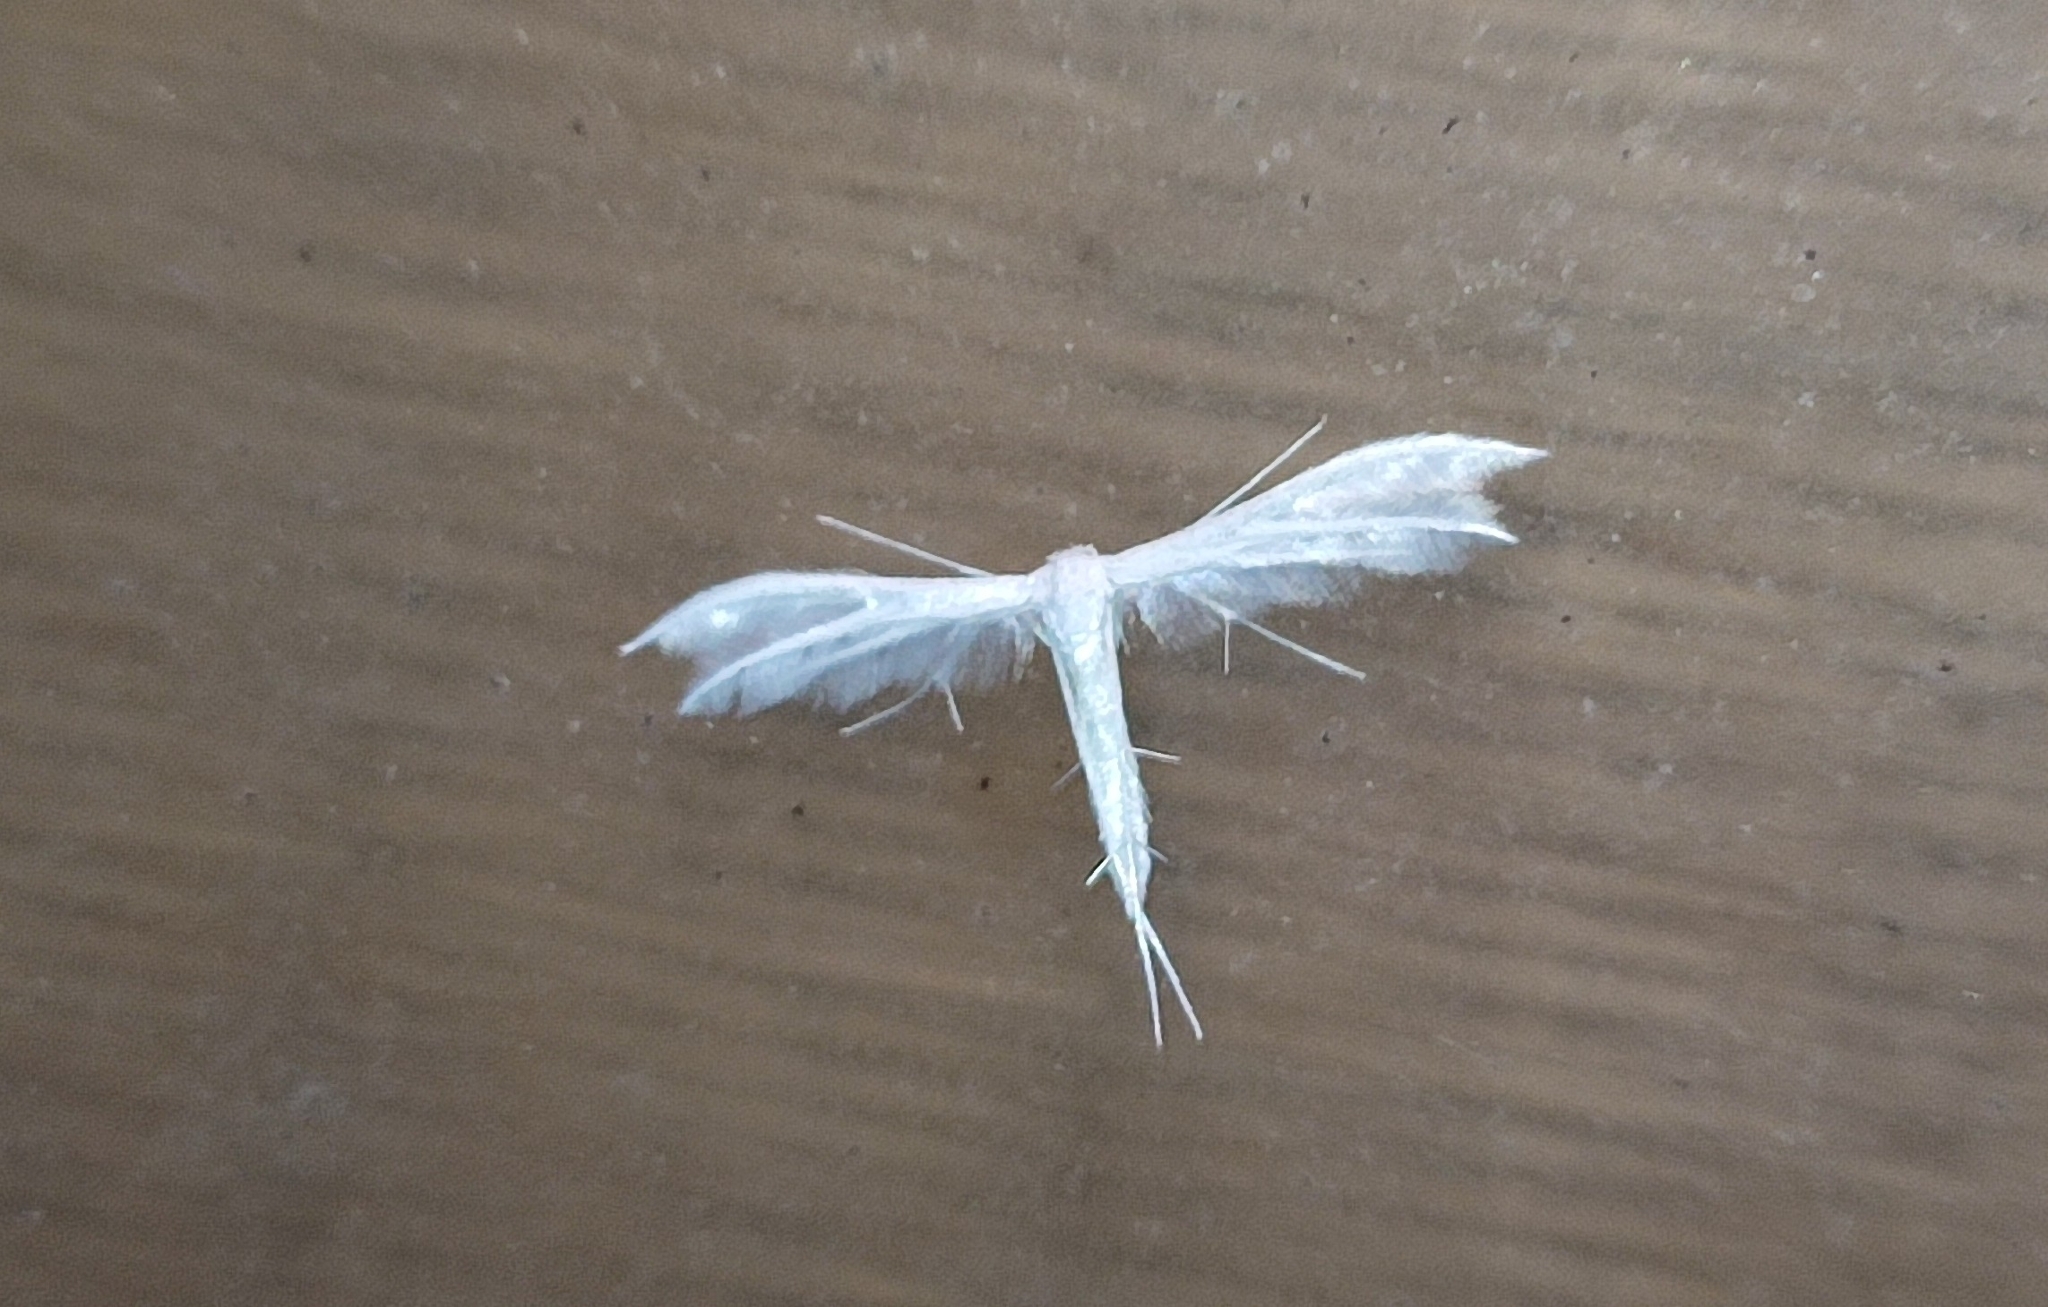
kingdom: Animalia
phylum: Arthropoda
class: Insecta
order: Lepidoptera
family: Pterophoridae
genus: Pterophorus
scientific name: Pterophorus pentadactyla
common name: White plume moth
